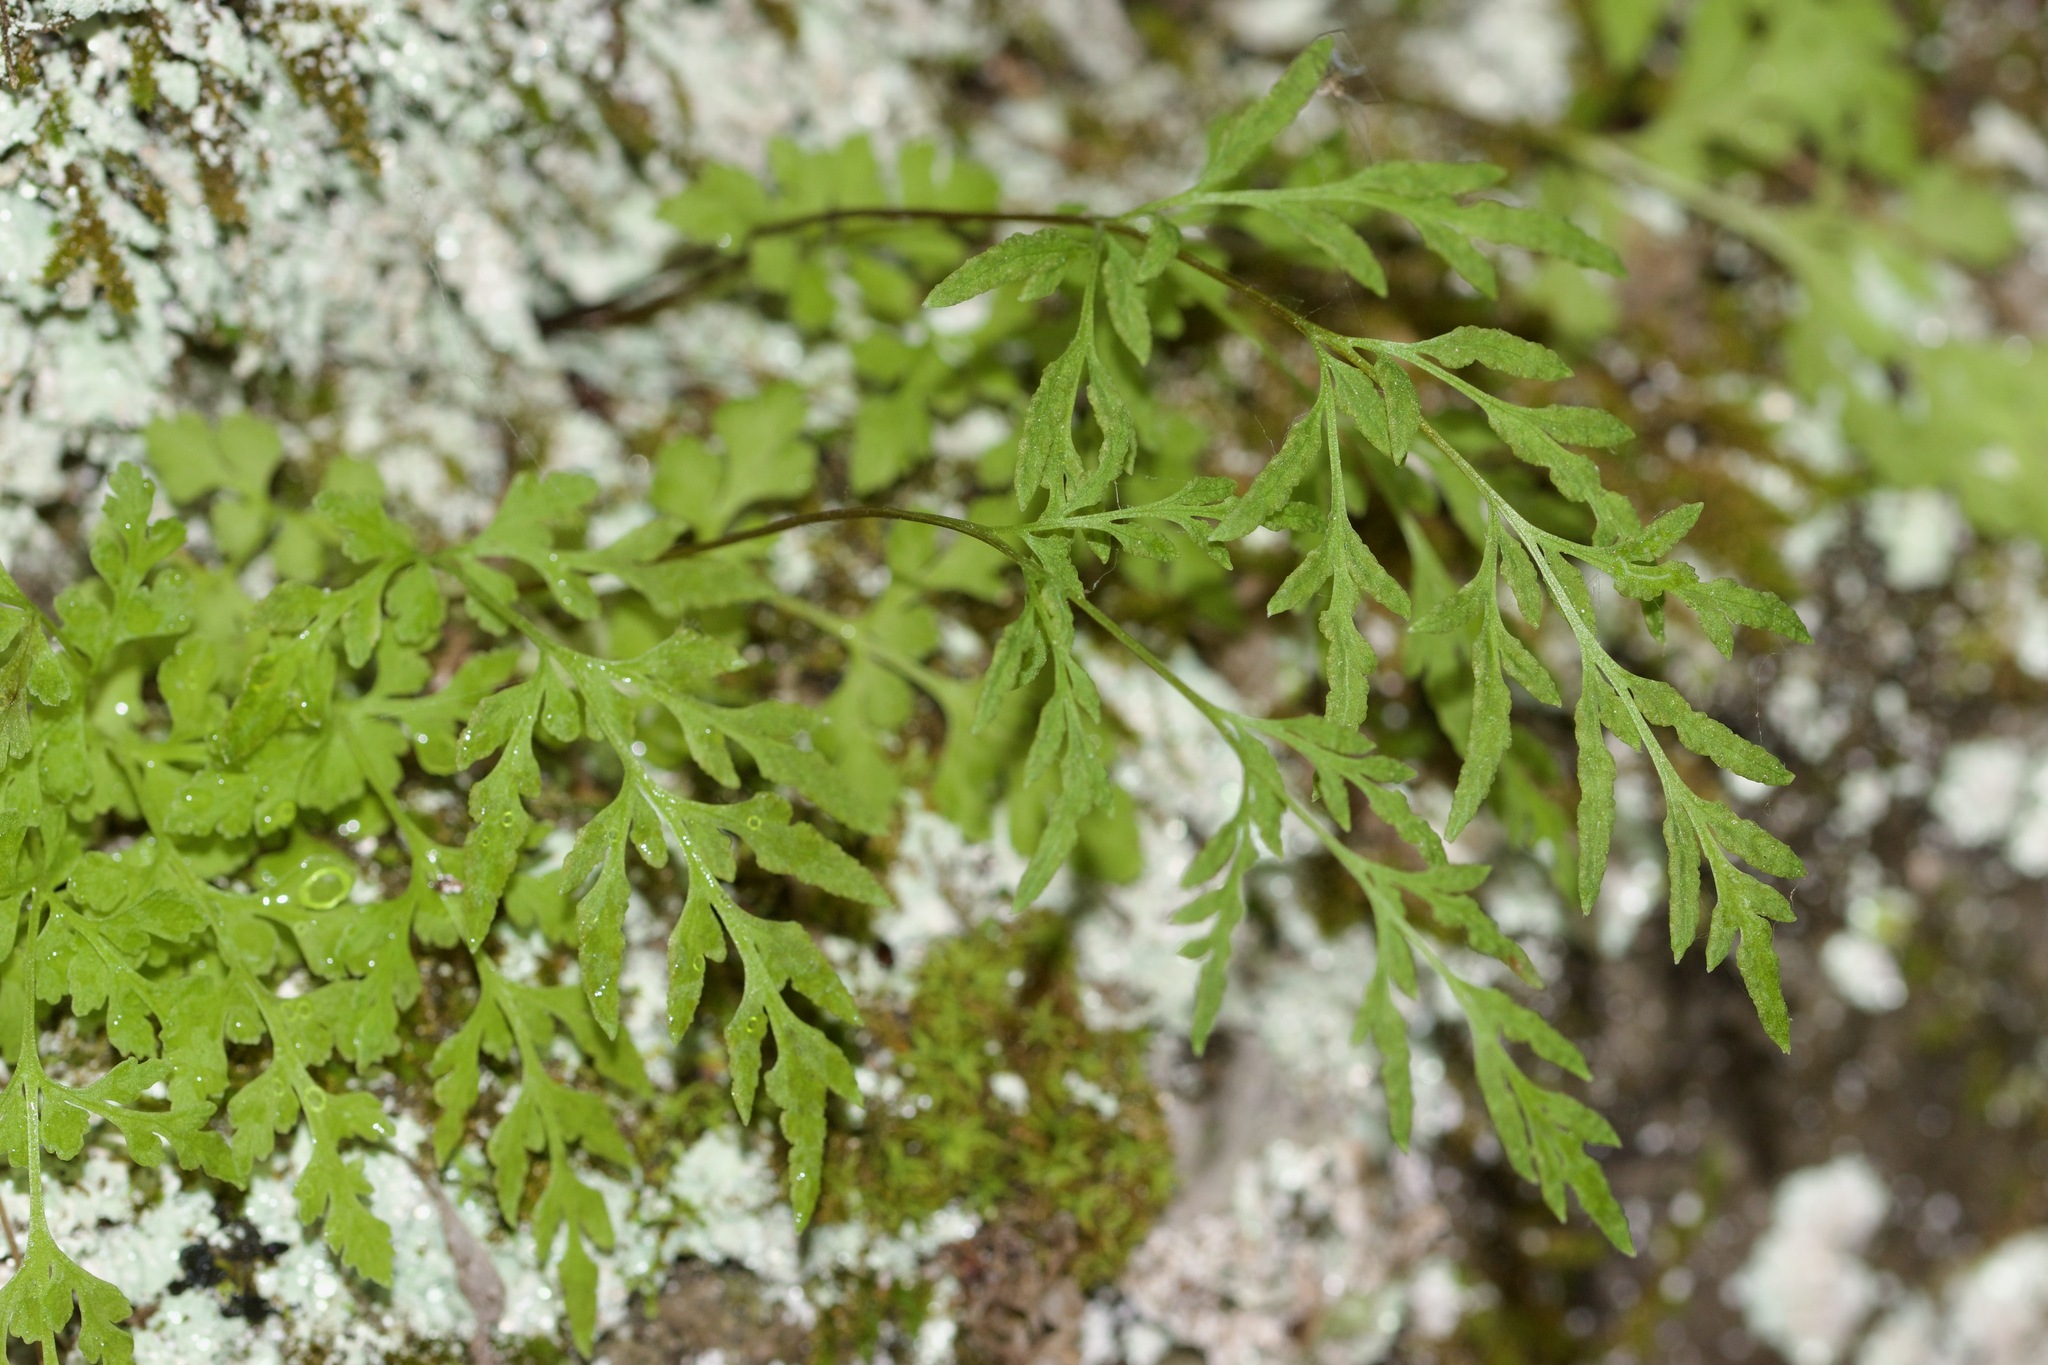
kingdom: Plantae
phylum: Tracheophyta
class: Polypodiopsida
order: Polypodiales
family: Pteridaceae
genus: Cryptogramma
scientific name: Cryptogramma stelleri
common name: Cliff-brake
